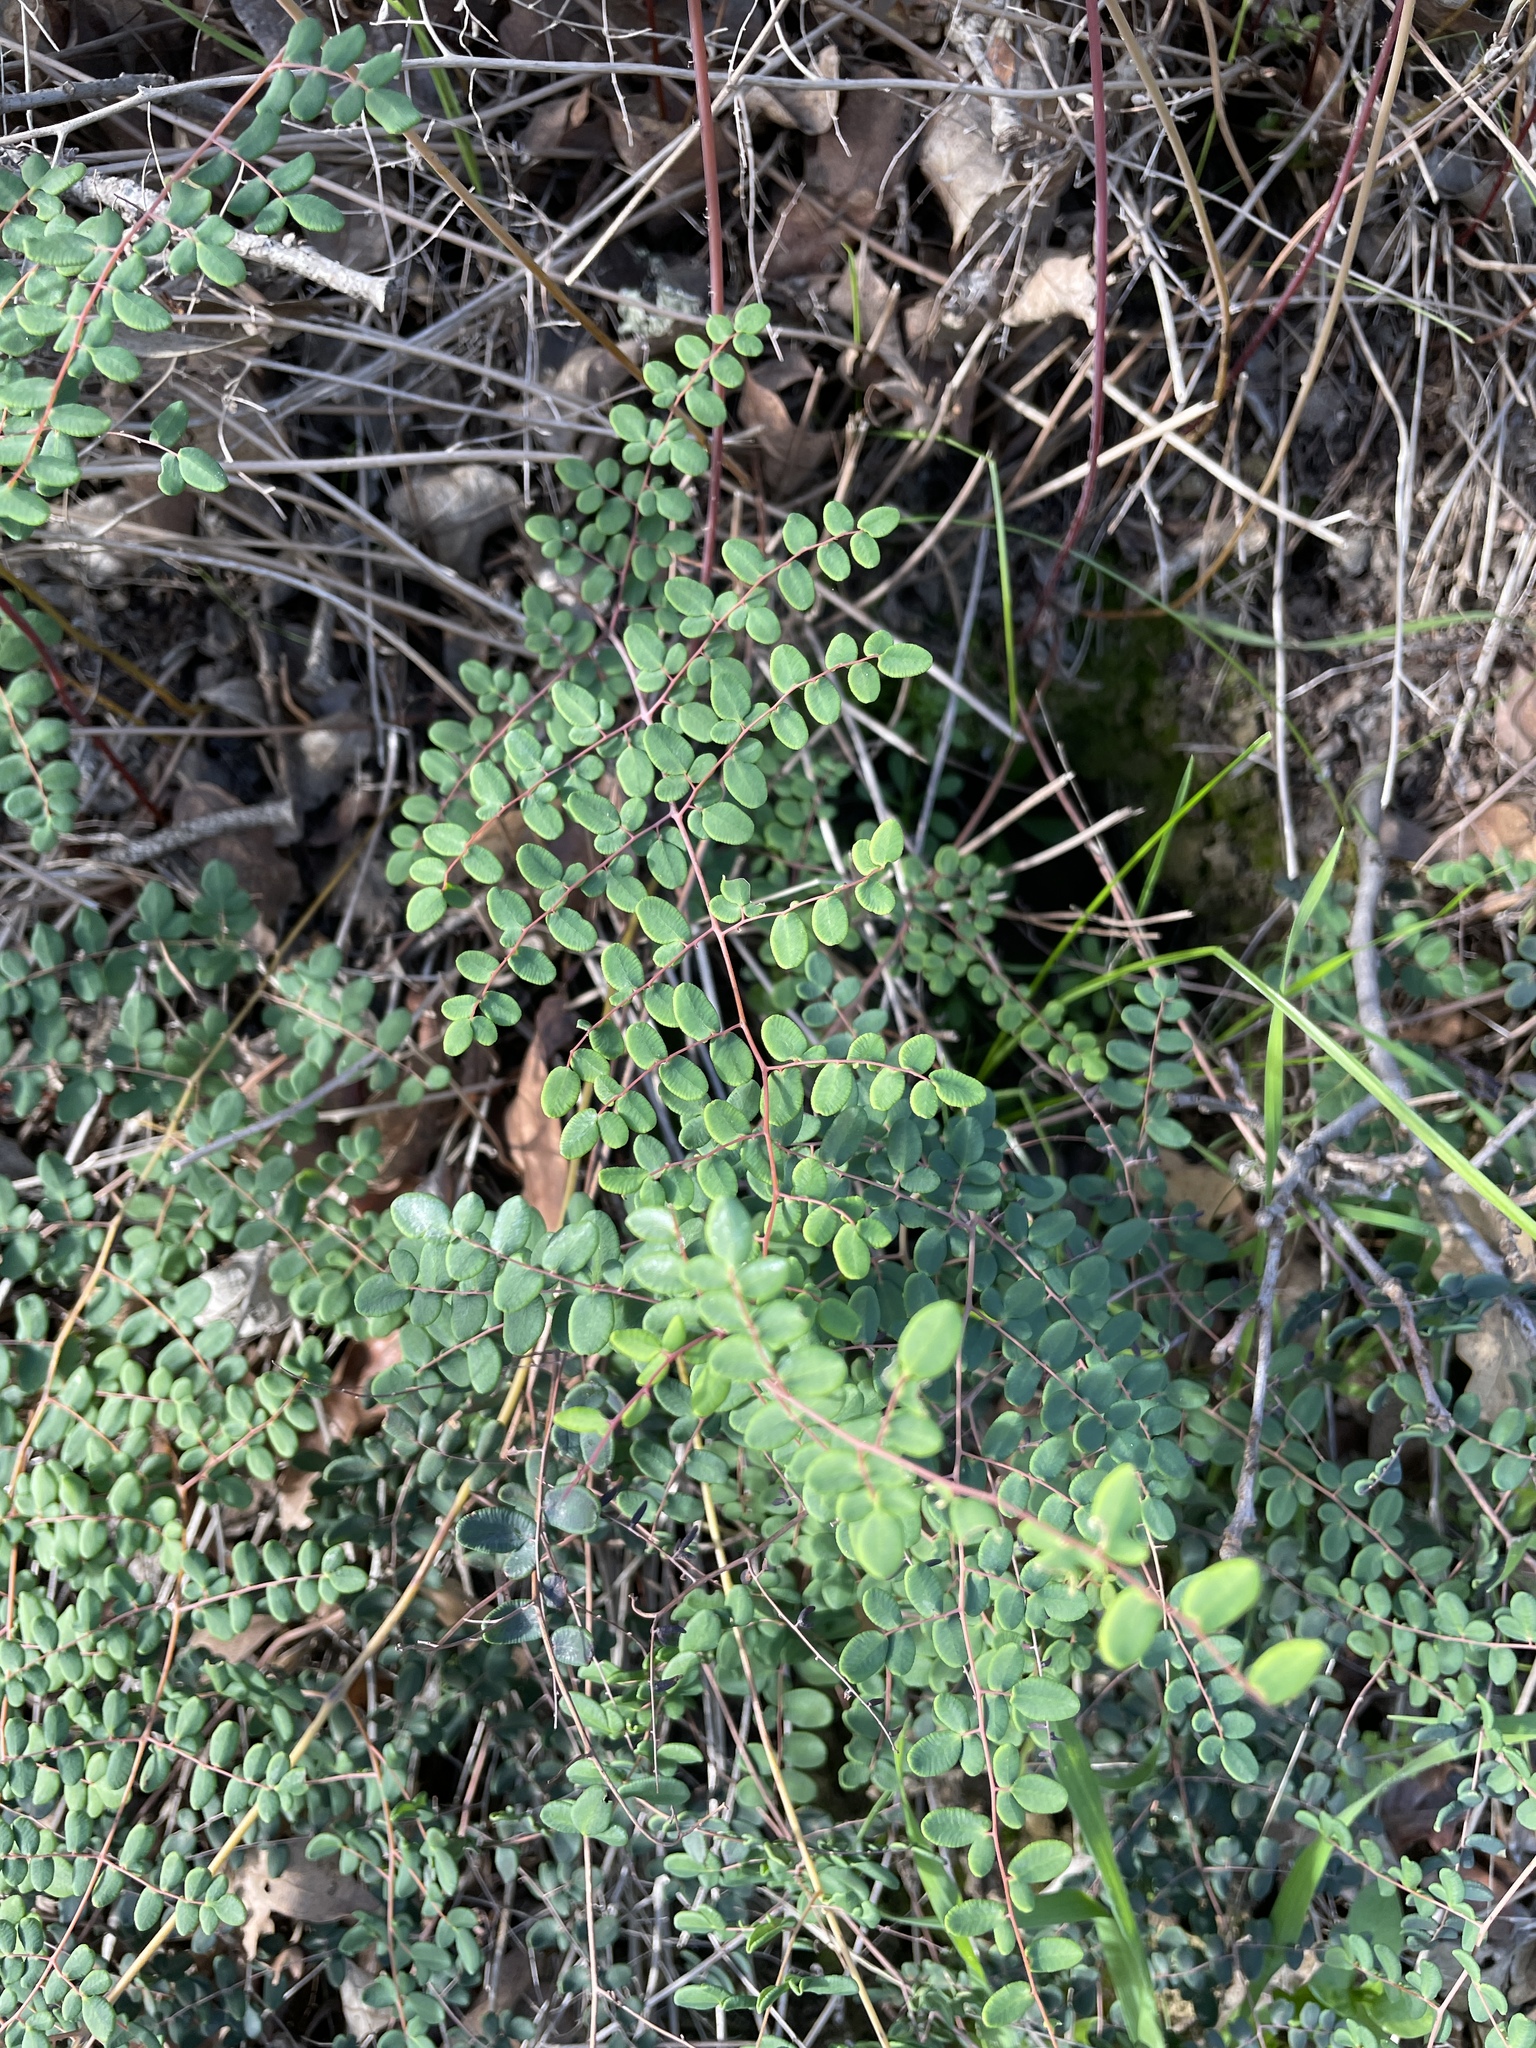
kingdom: Plantae
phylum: Tracheophyta
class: Polypodiopsida
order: Polypodiales
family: Pteridaceae
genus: Pellaea
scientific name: Pellaea andromedifolia
